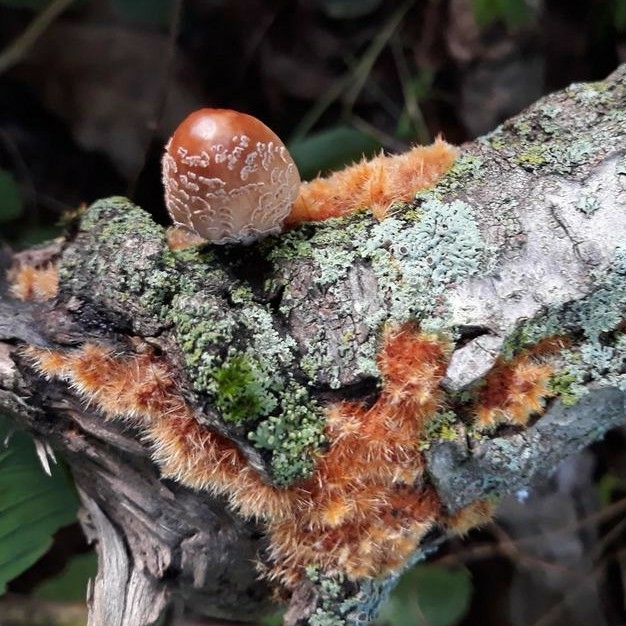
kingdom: Fungi
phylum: Basidiomycota
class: Agaricomycetes
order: Agaricales
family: Psathyrellaceae
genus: Coprinellus
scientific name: Coprinellus domesticus
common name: Firerug inkcap
